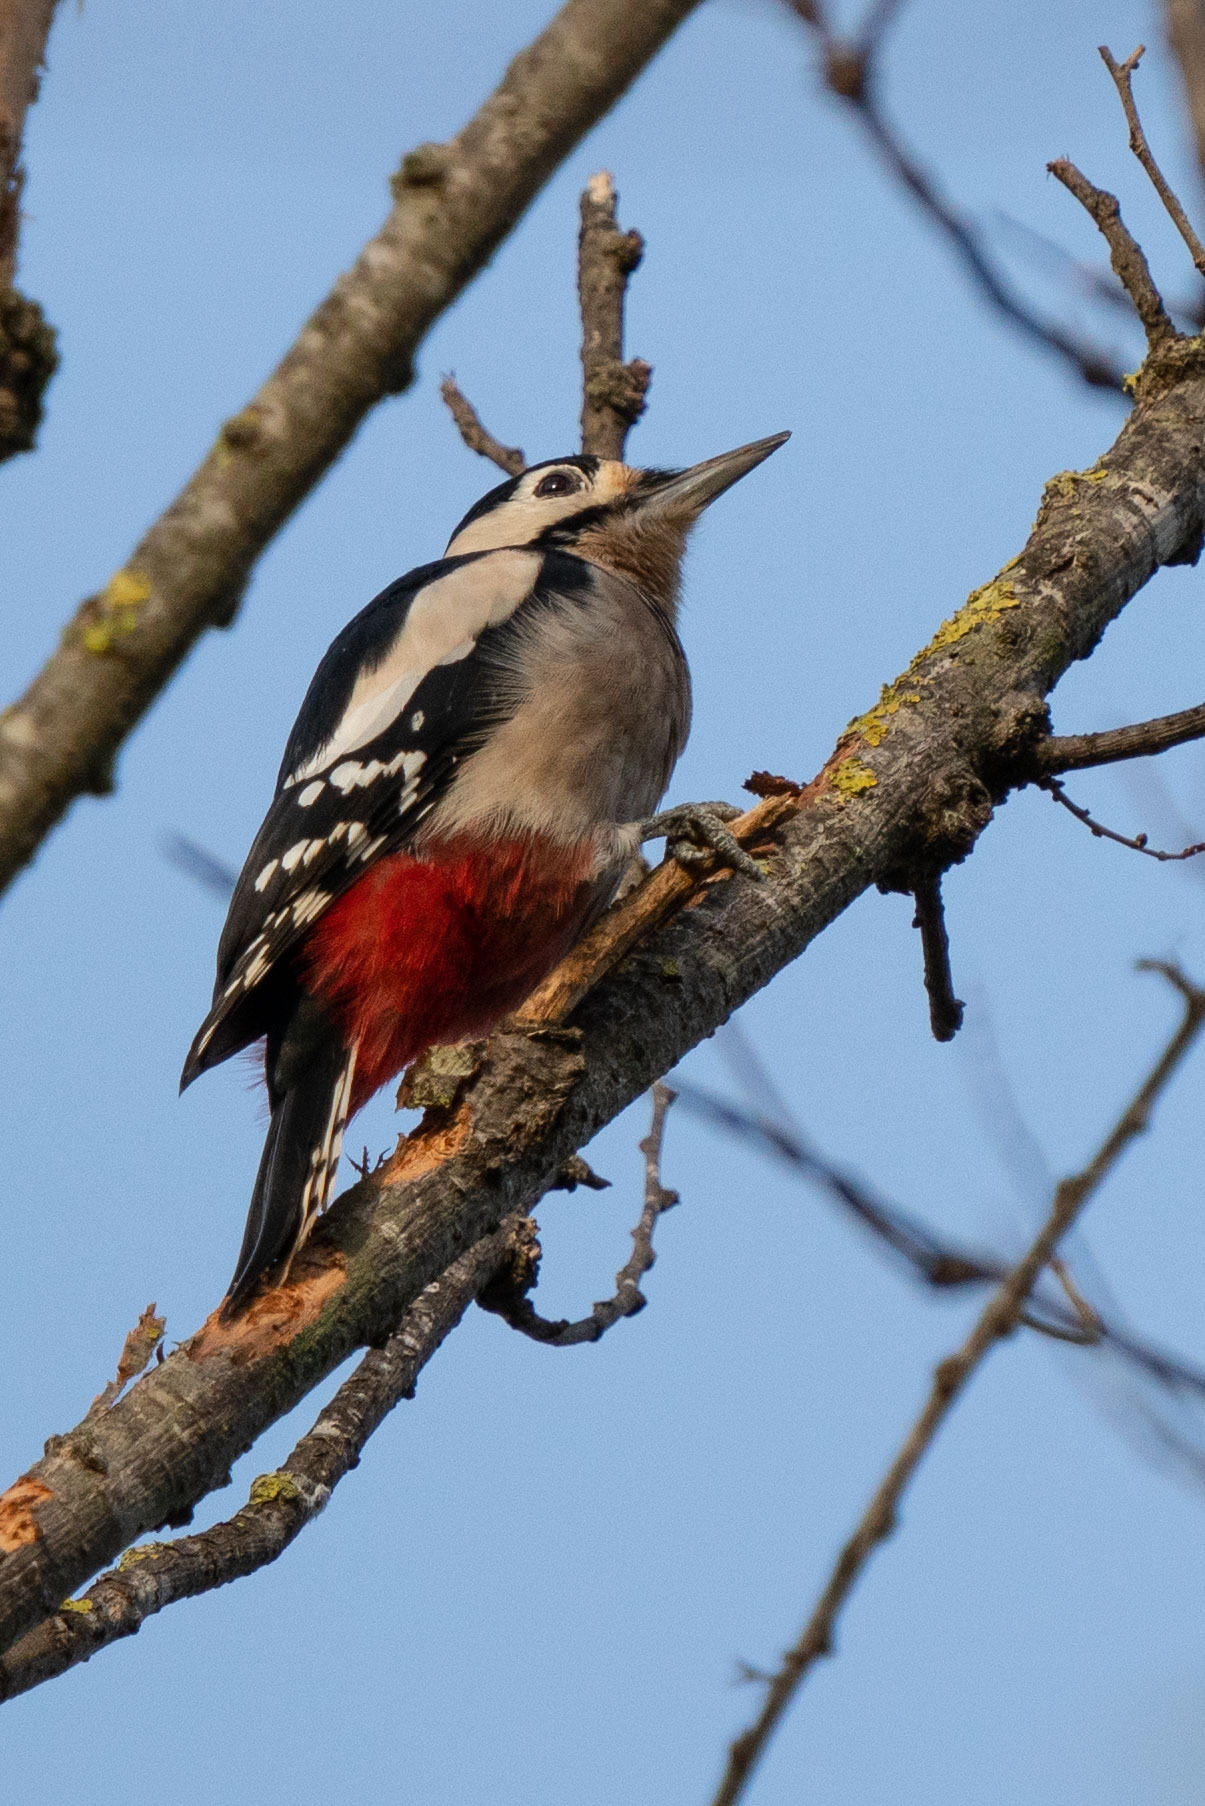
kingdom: Animalia
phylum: Chordata
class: Aves
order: Piciformes
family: Picidae
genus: Dendrocopos
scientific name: Dendrocopos major
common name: Great spotted woodpecker
